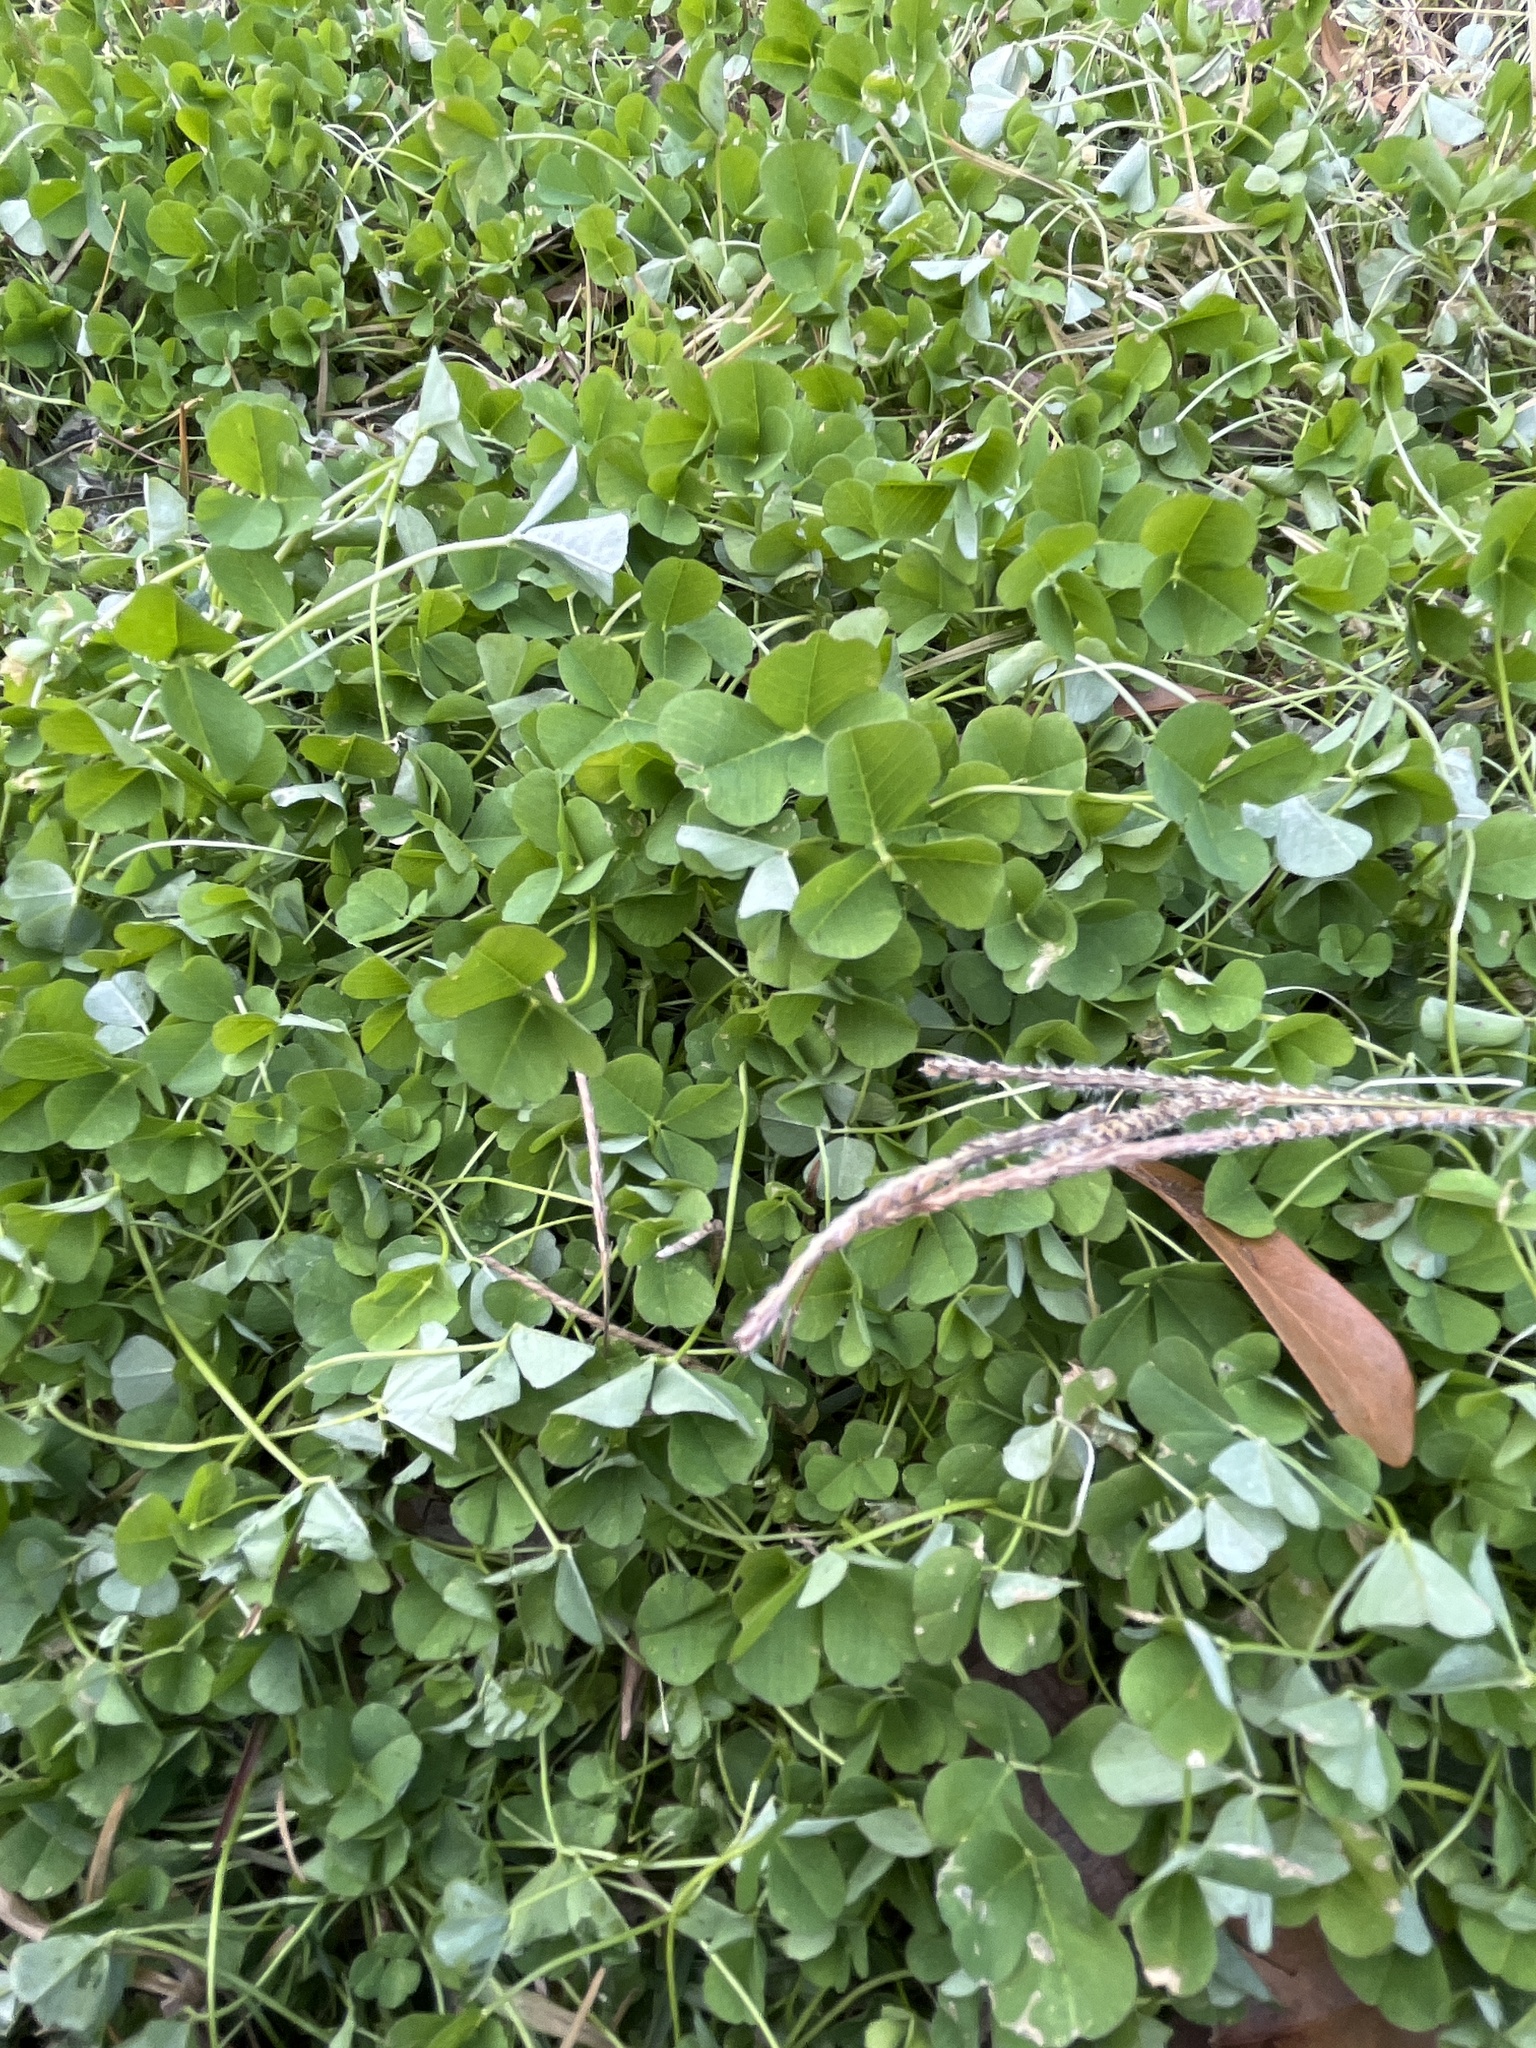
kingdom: Plantae
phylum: Tracheophyta
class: Magnoliopsida
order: Fabales
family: Fabaceae
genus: Medicago
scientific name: Medicago polymorpha
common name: Burclover
